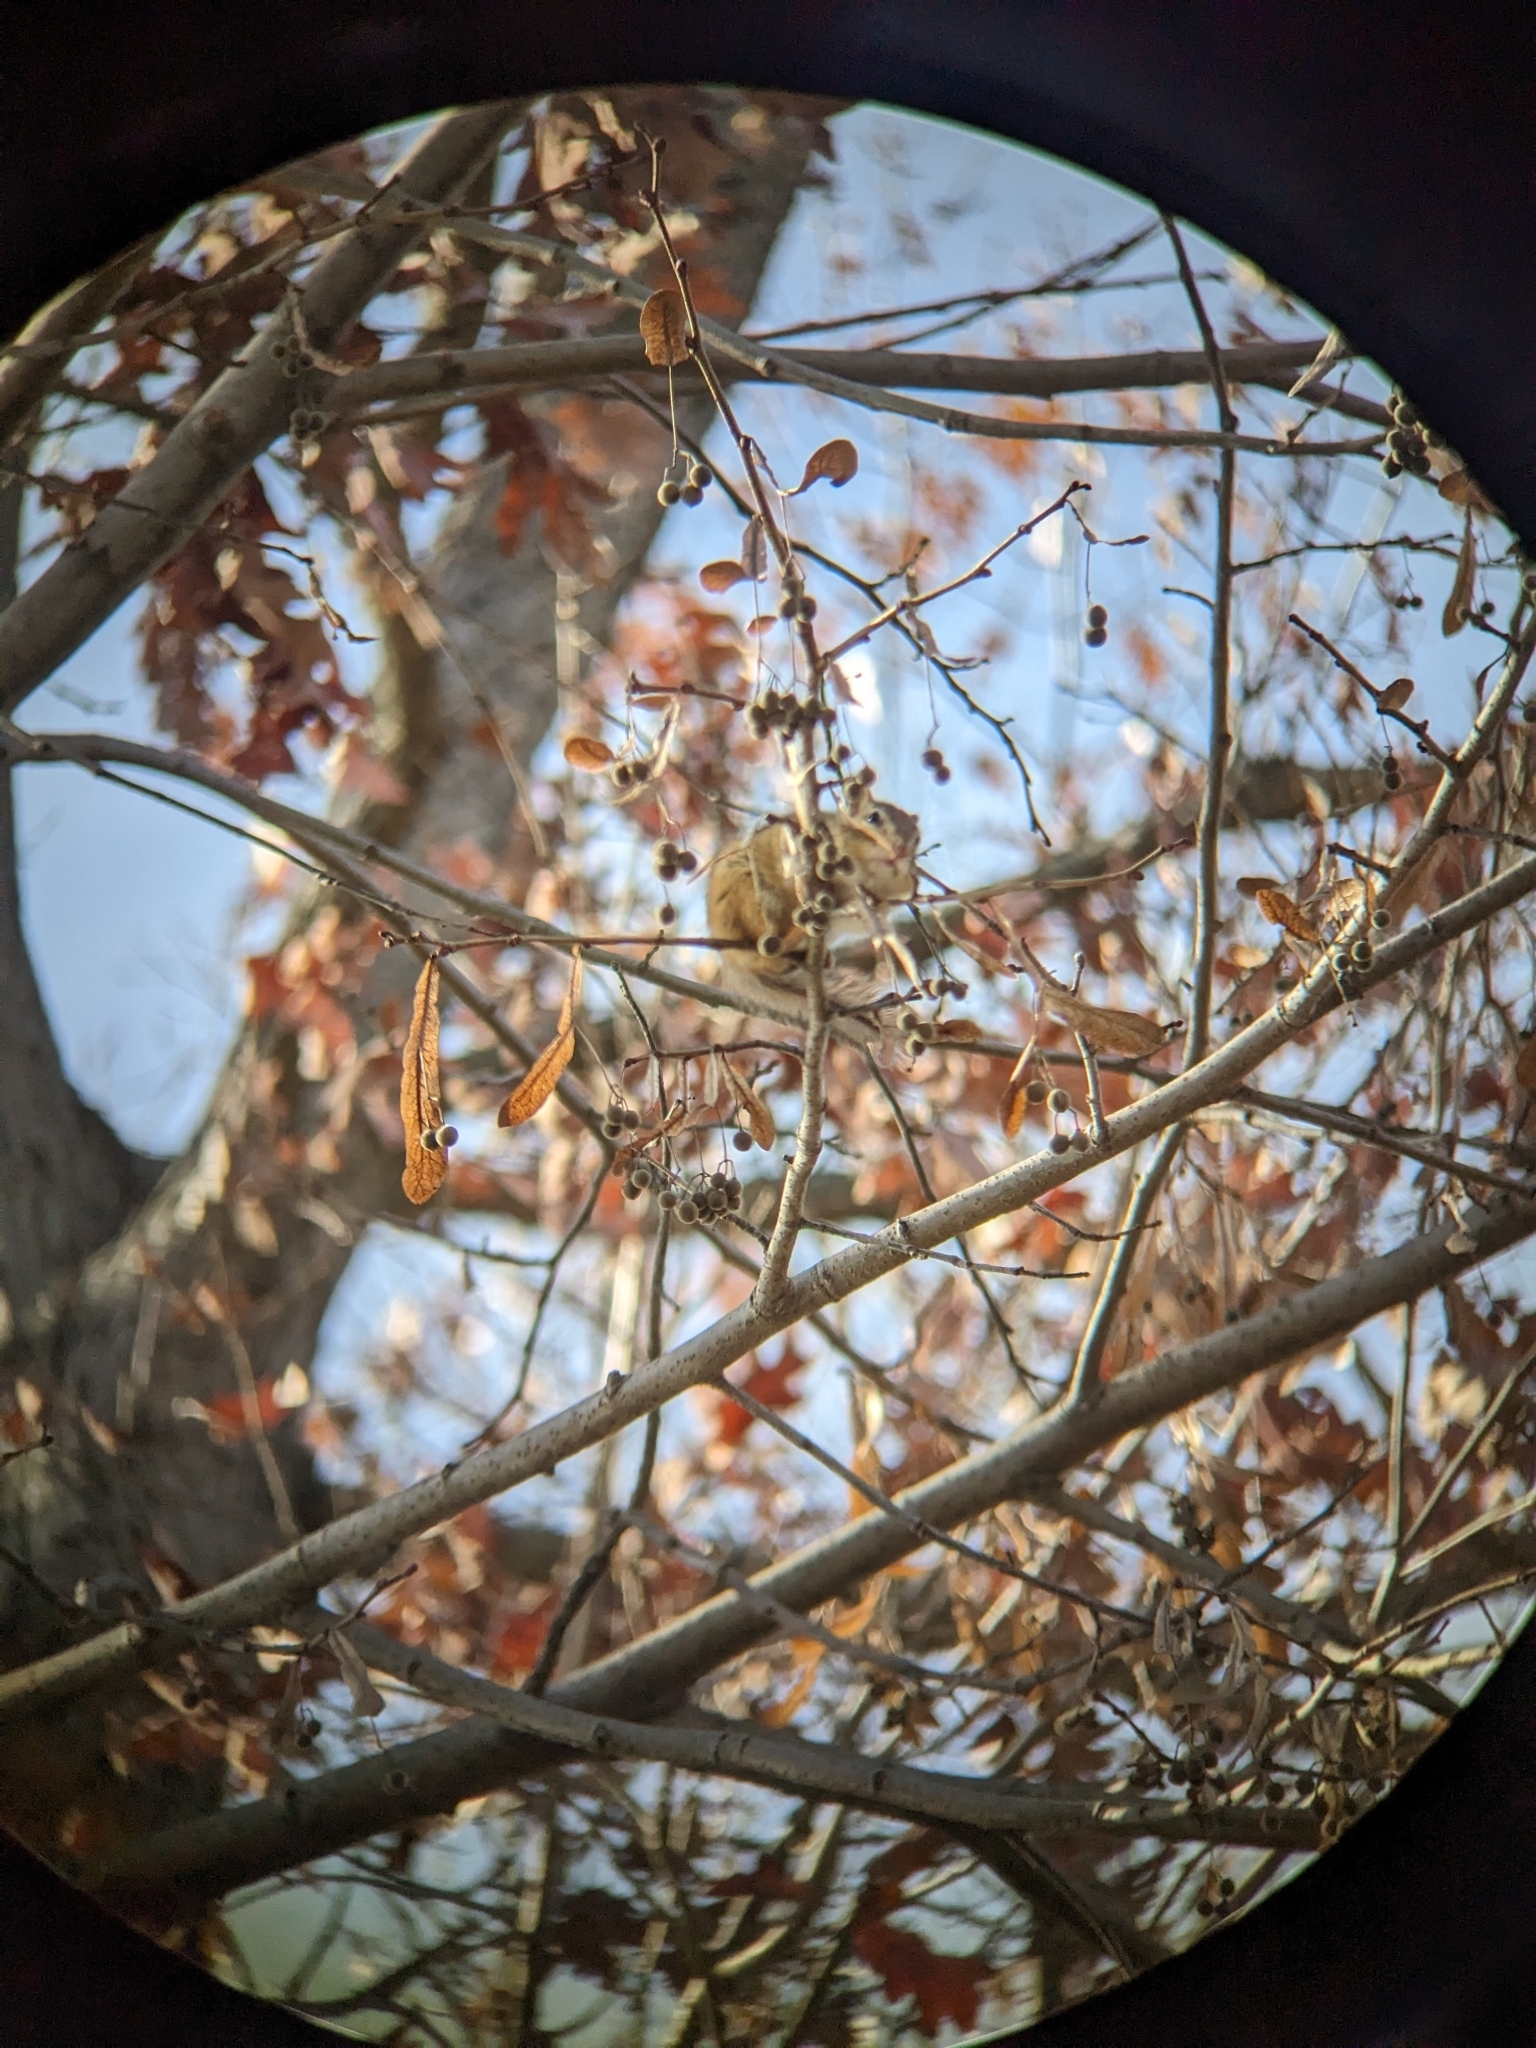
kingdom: Plantae
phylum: Tracheophyta
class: Magnoliopsida
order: Malvales
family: Malvaceae
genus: Tilia
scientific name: Tilia americana
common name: Basswood
